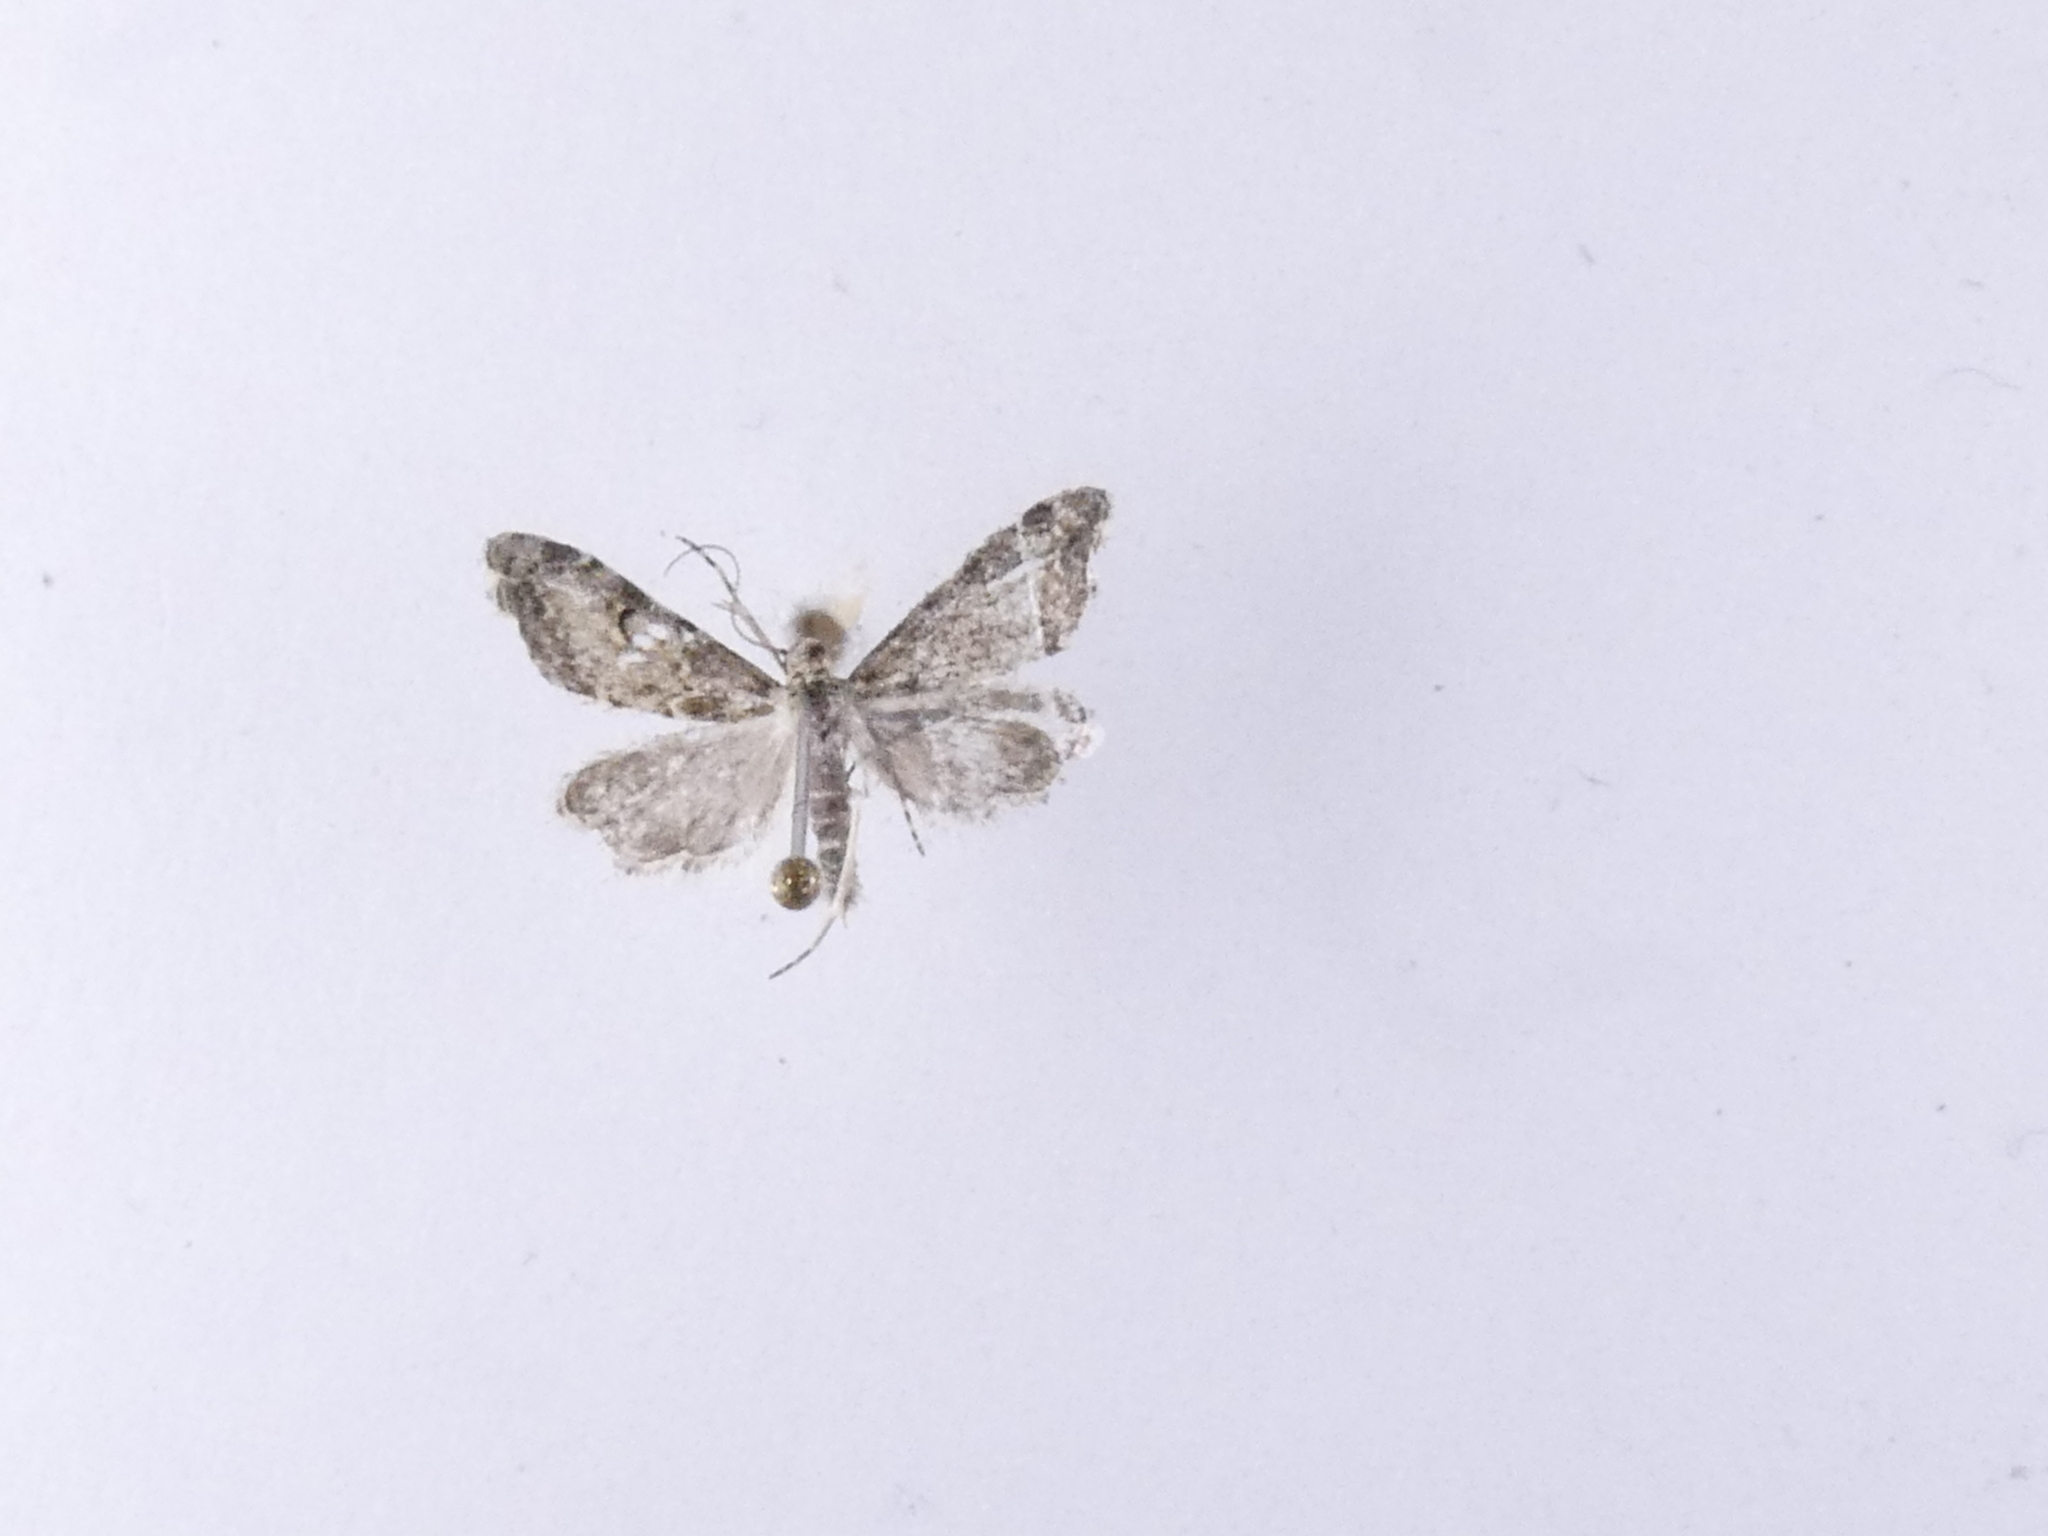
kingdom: Animalia
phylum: Arthropoda
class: Insecta
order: Lepidoptera
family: Crambidae
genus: Glaucocharis
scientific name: Glaucocharis elaina
